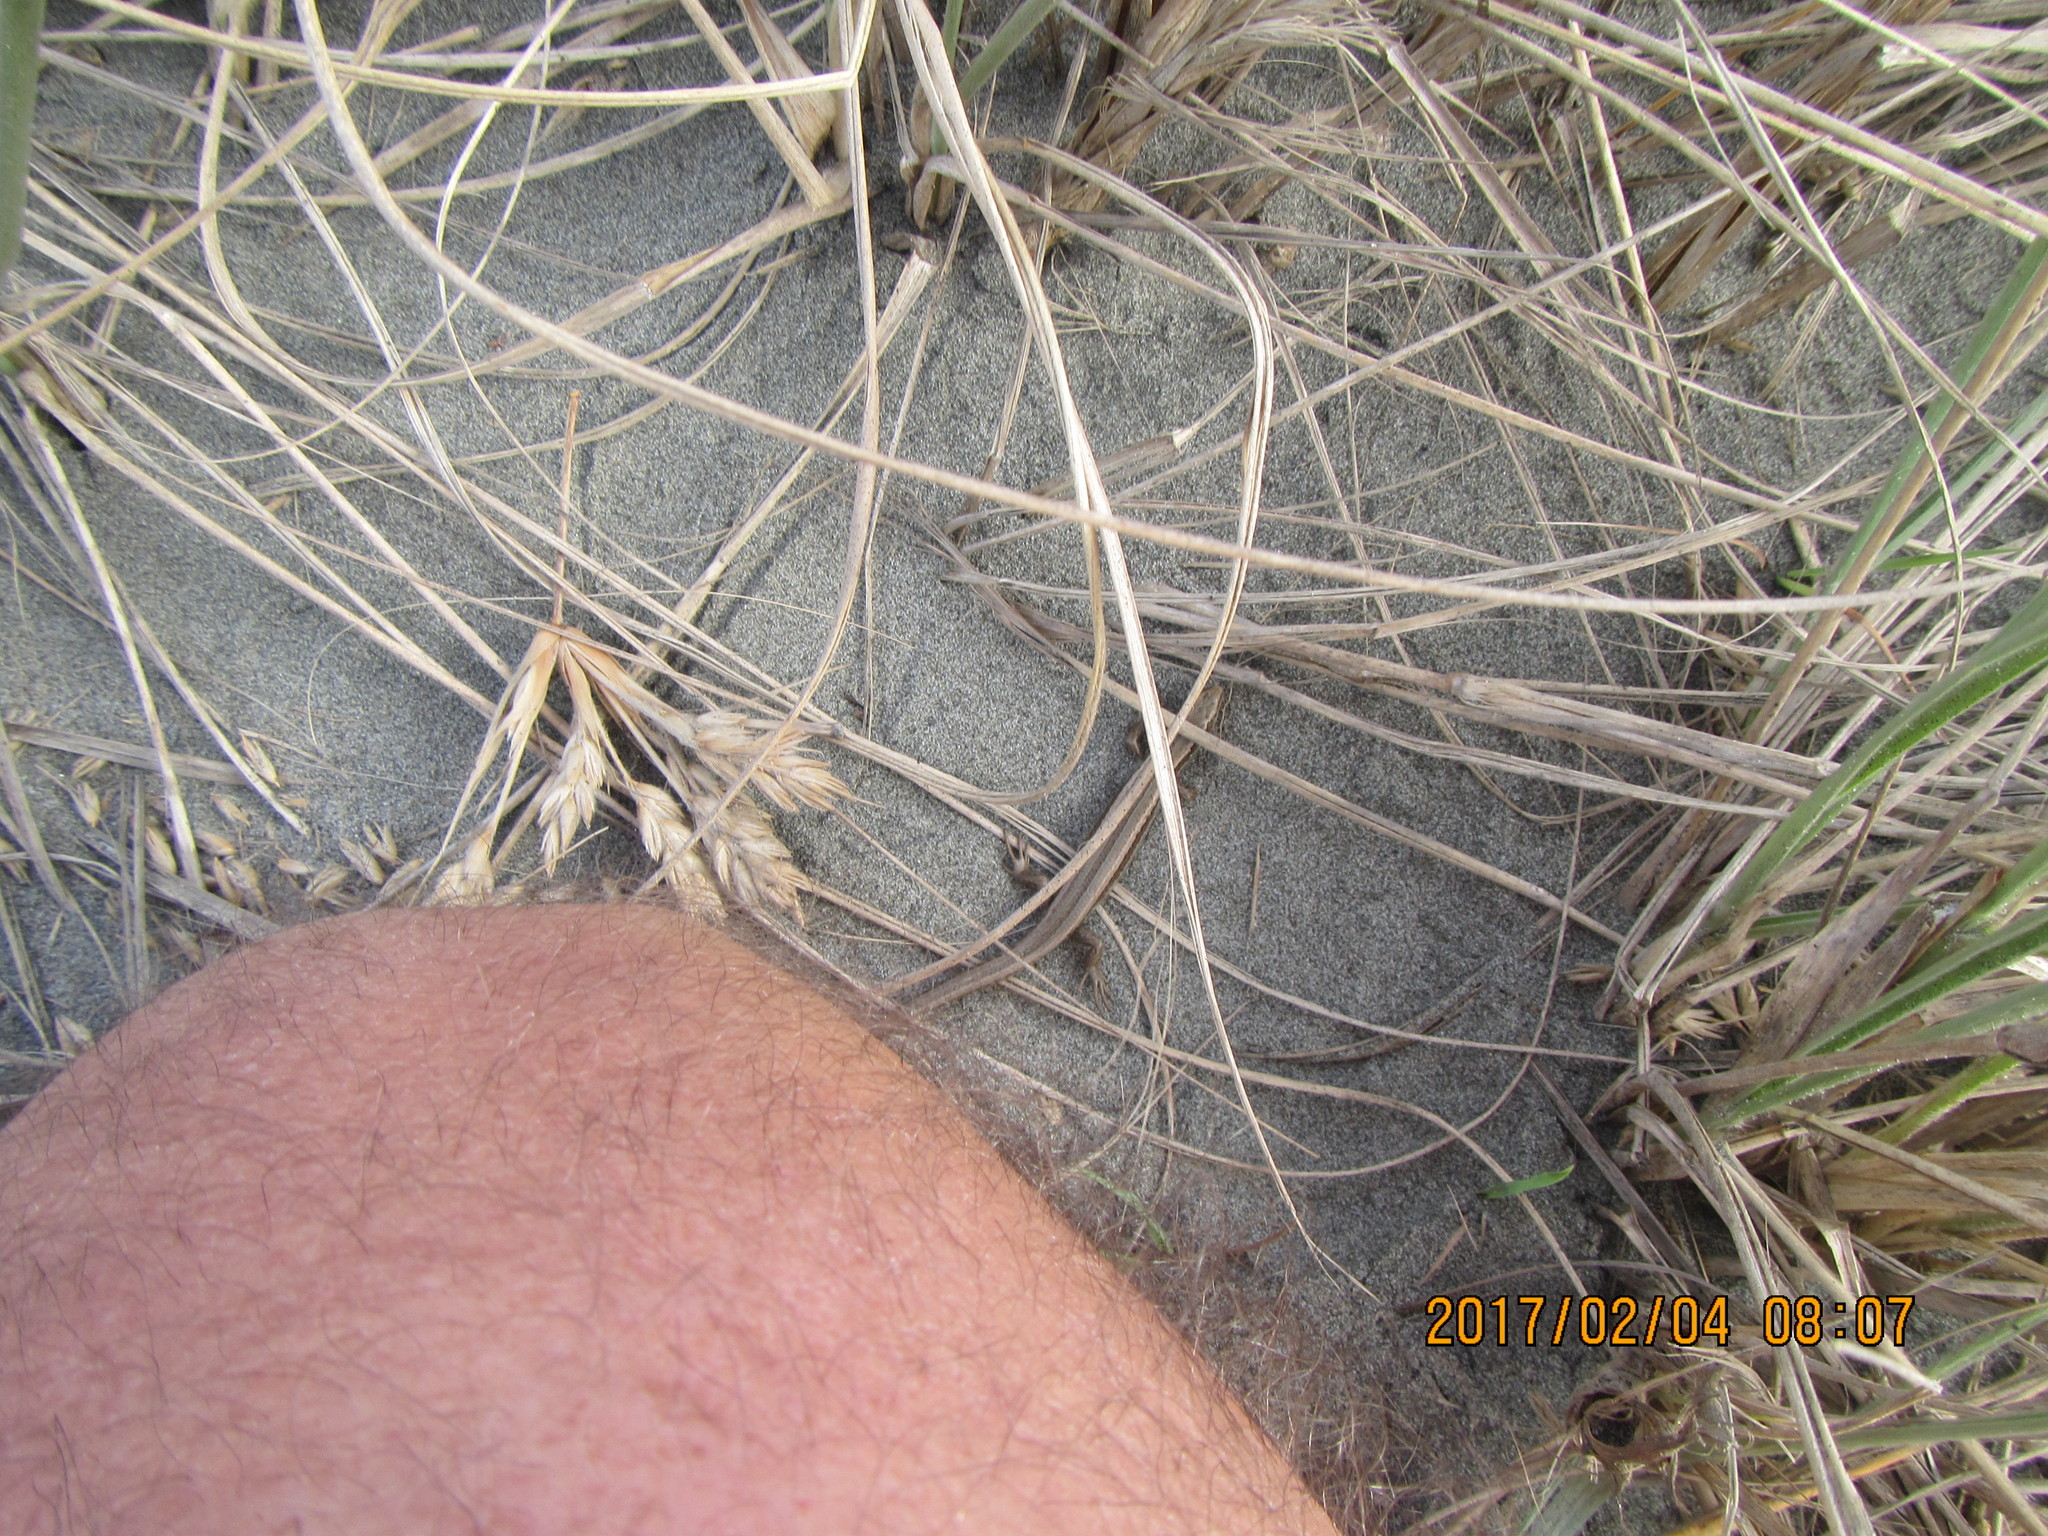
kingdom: Animalia
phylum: Chordata
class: Squamata
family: Scincidae
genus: Oligosoma
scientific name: Oligosoma polychroma
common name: Common new zealand skink
